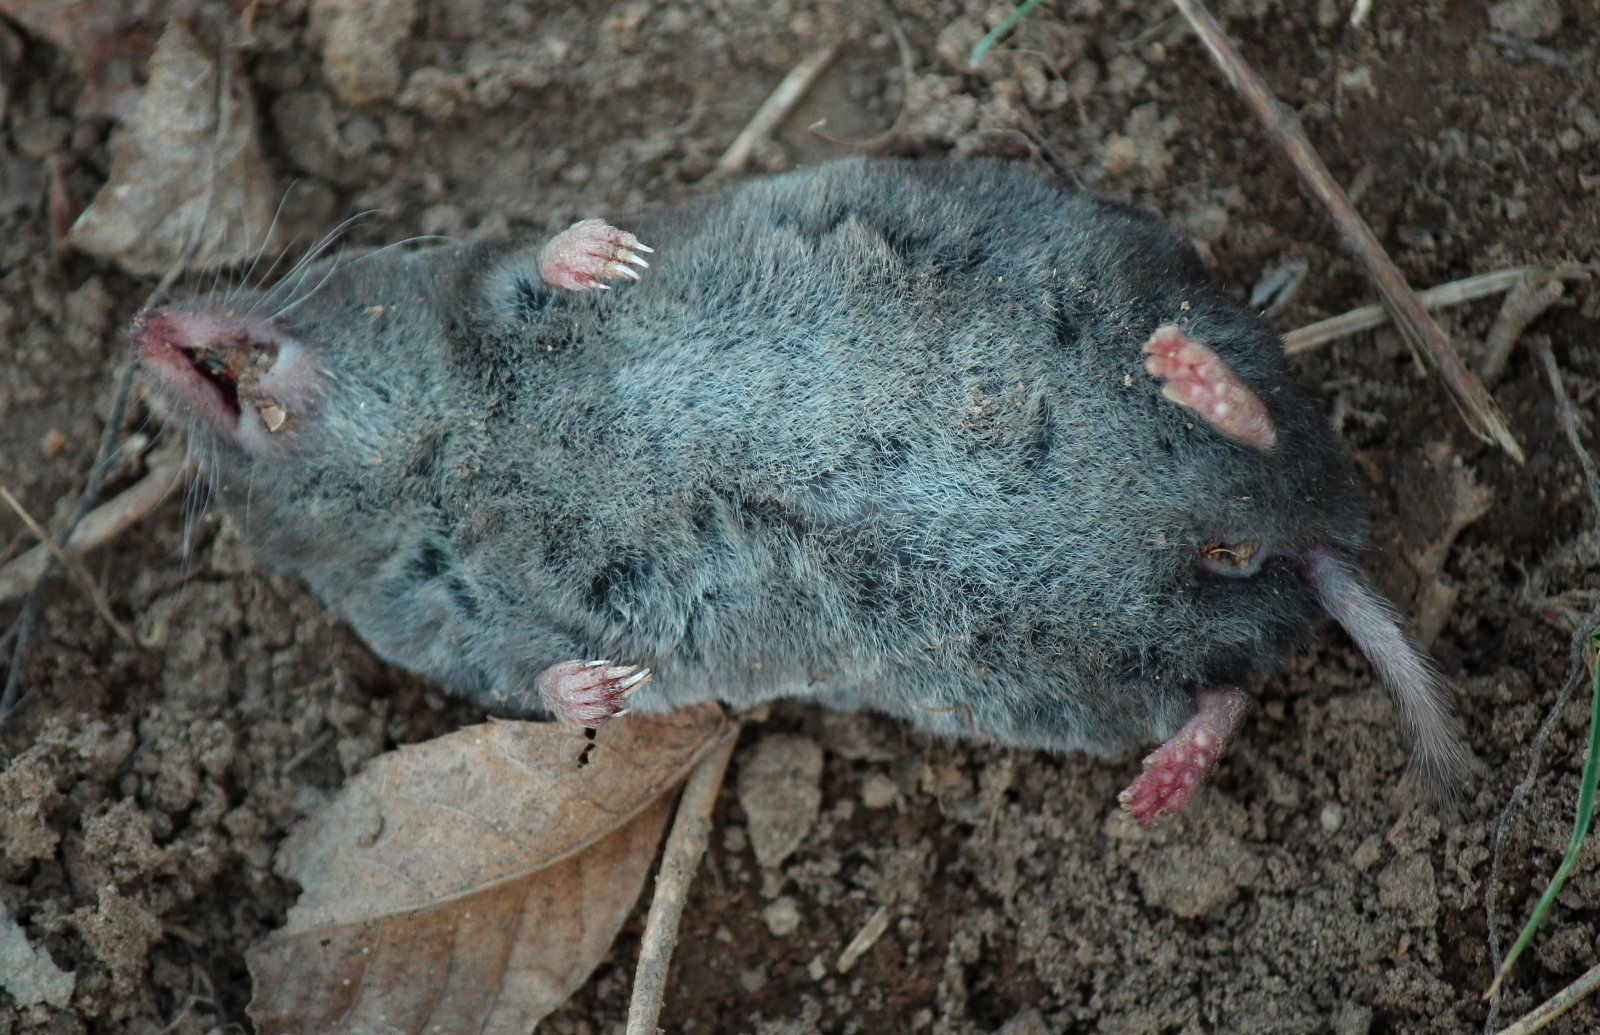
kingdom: Animalia
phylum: Chordata
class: Mammalia
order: Soricomorpha
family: Soricidae
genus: Blarina
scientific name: Blarina brevicauda
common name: Northern short-tailed shrew
